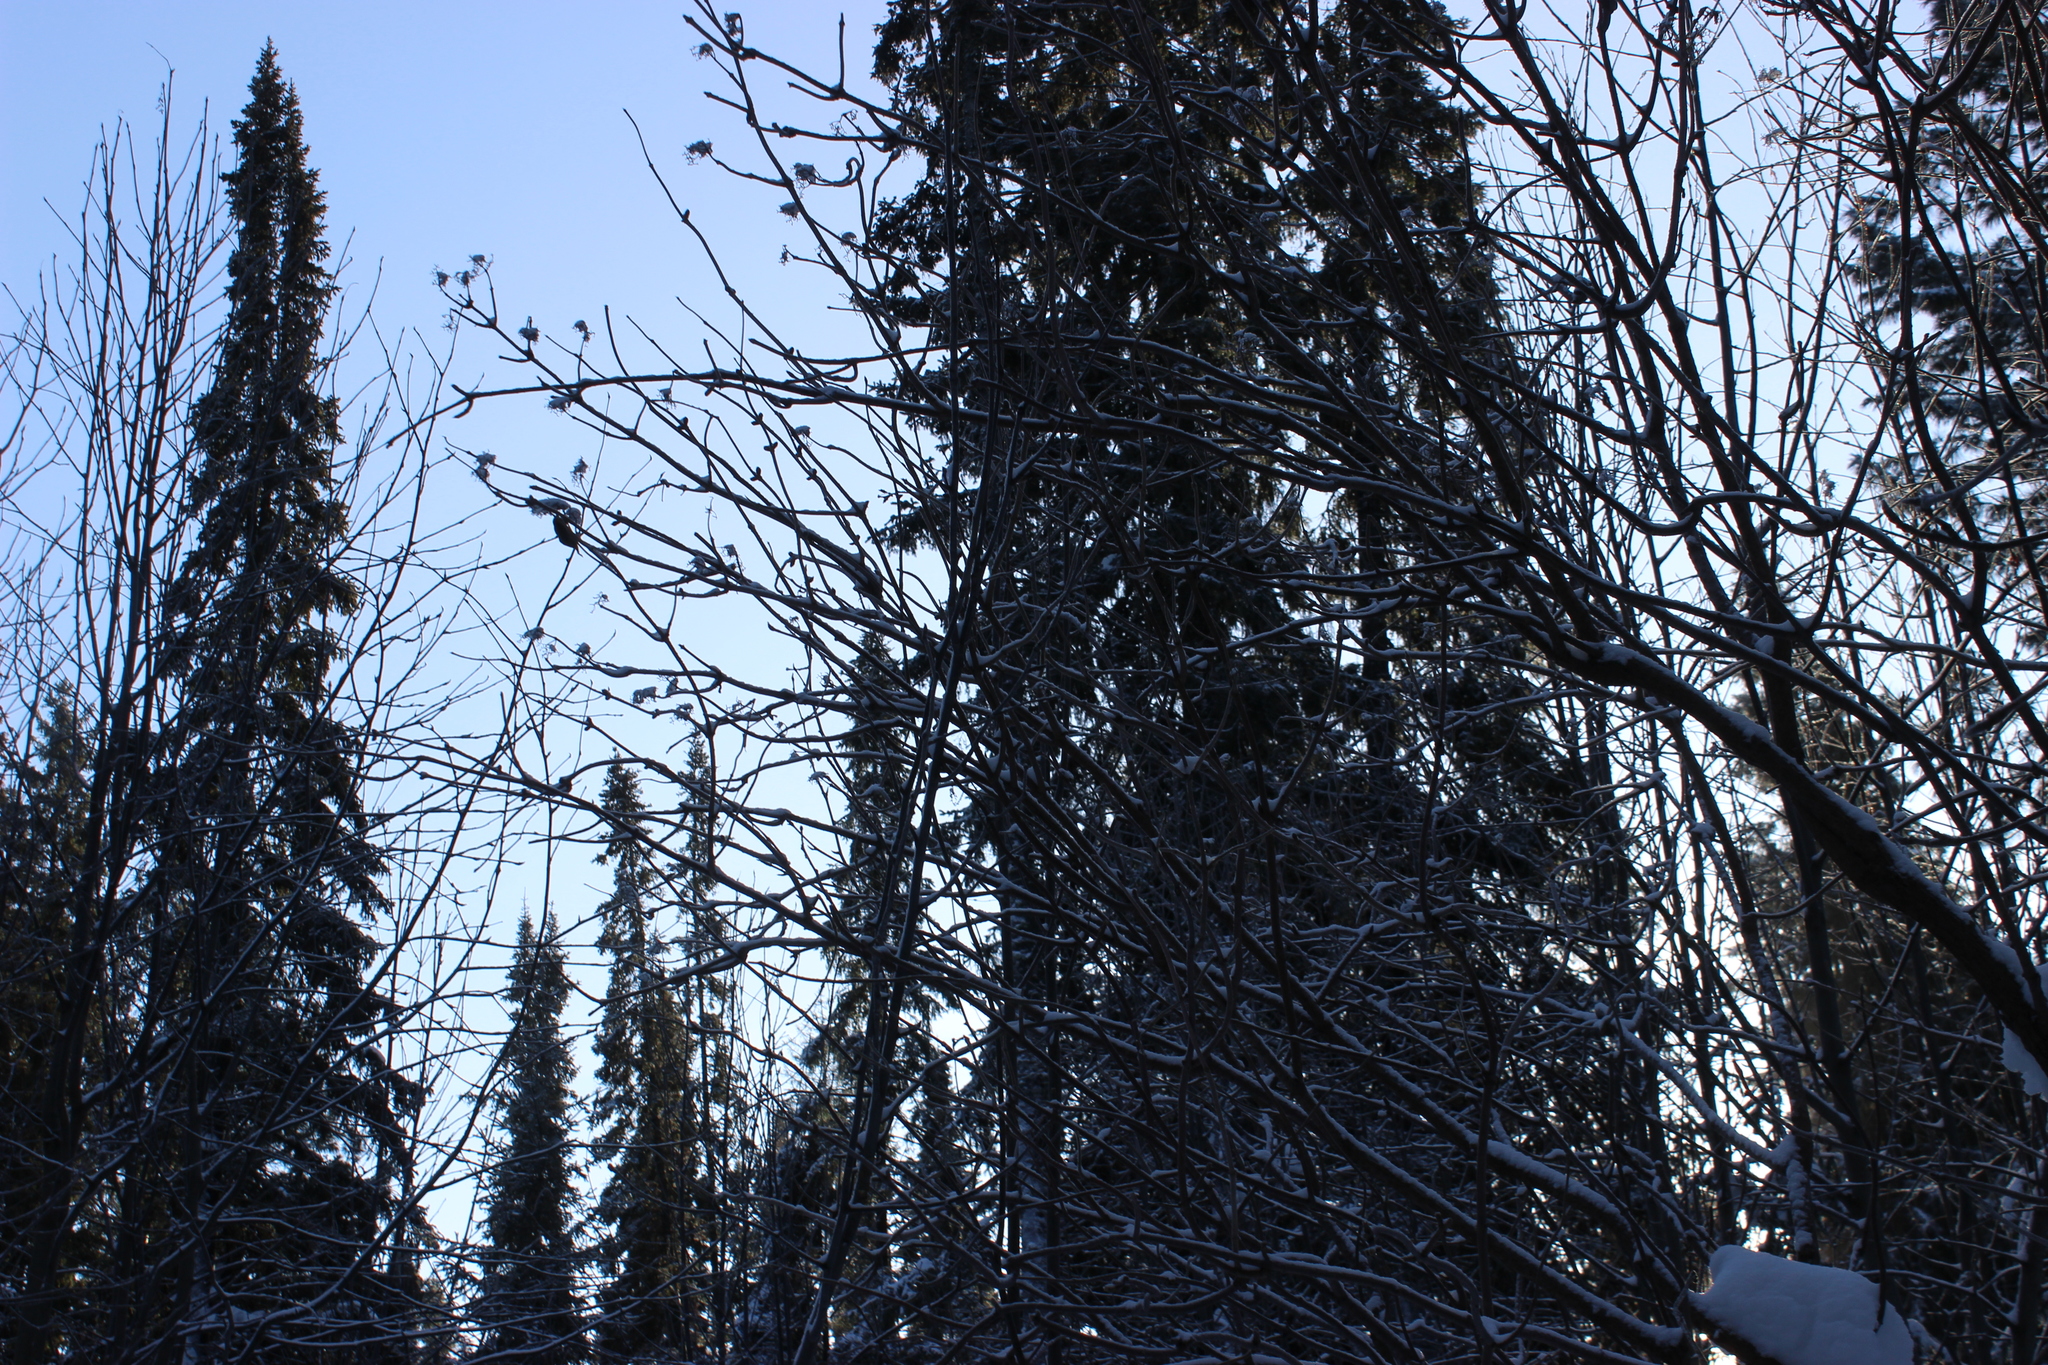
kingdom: Plantae
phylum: Tracheophyta
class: Magnoliopsida
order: Dipsacales
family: Viburnaceae
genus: Sambucus
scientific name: Sambucus sibirica
